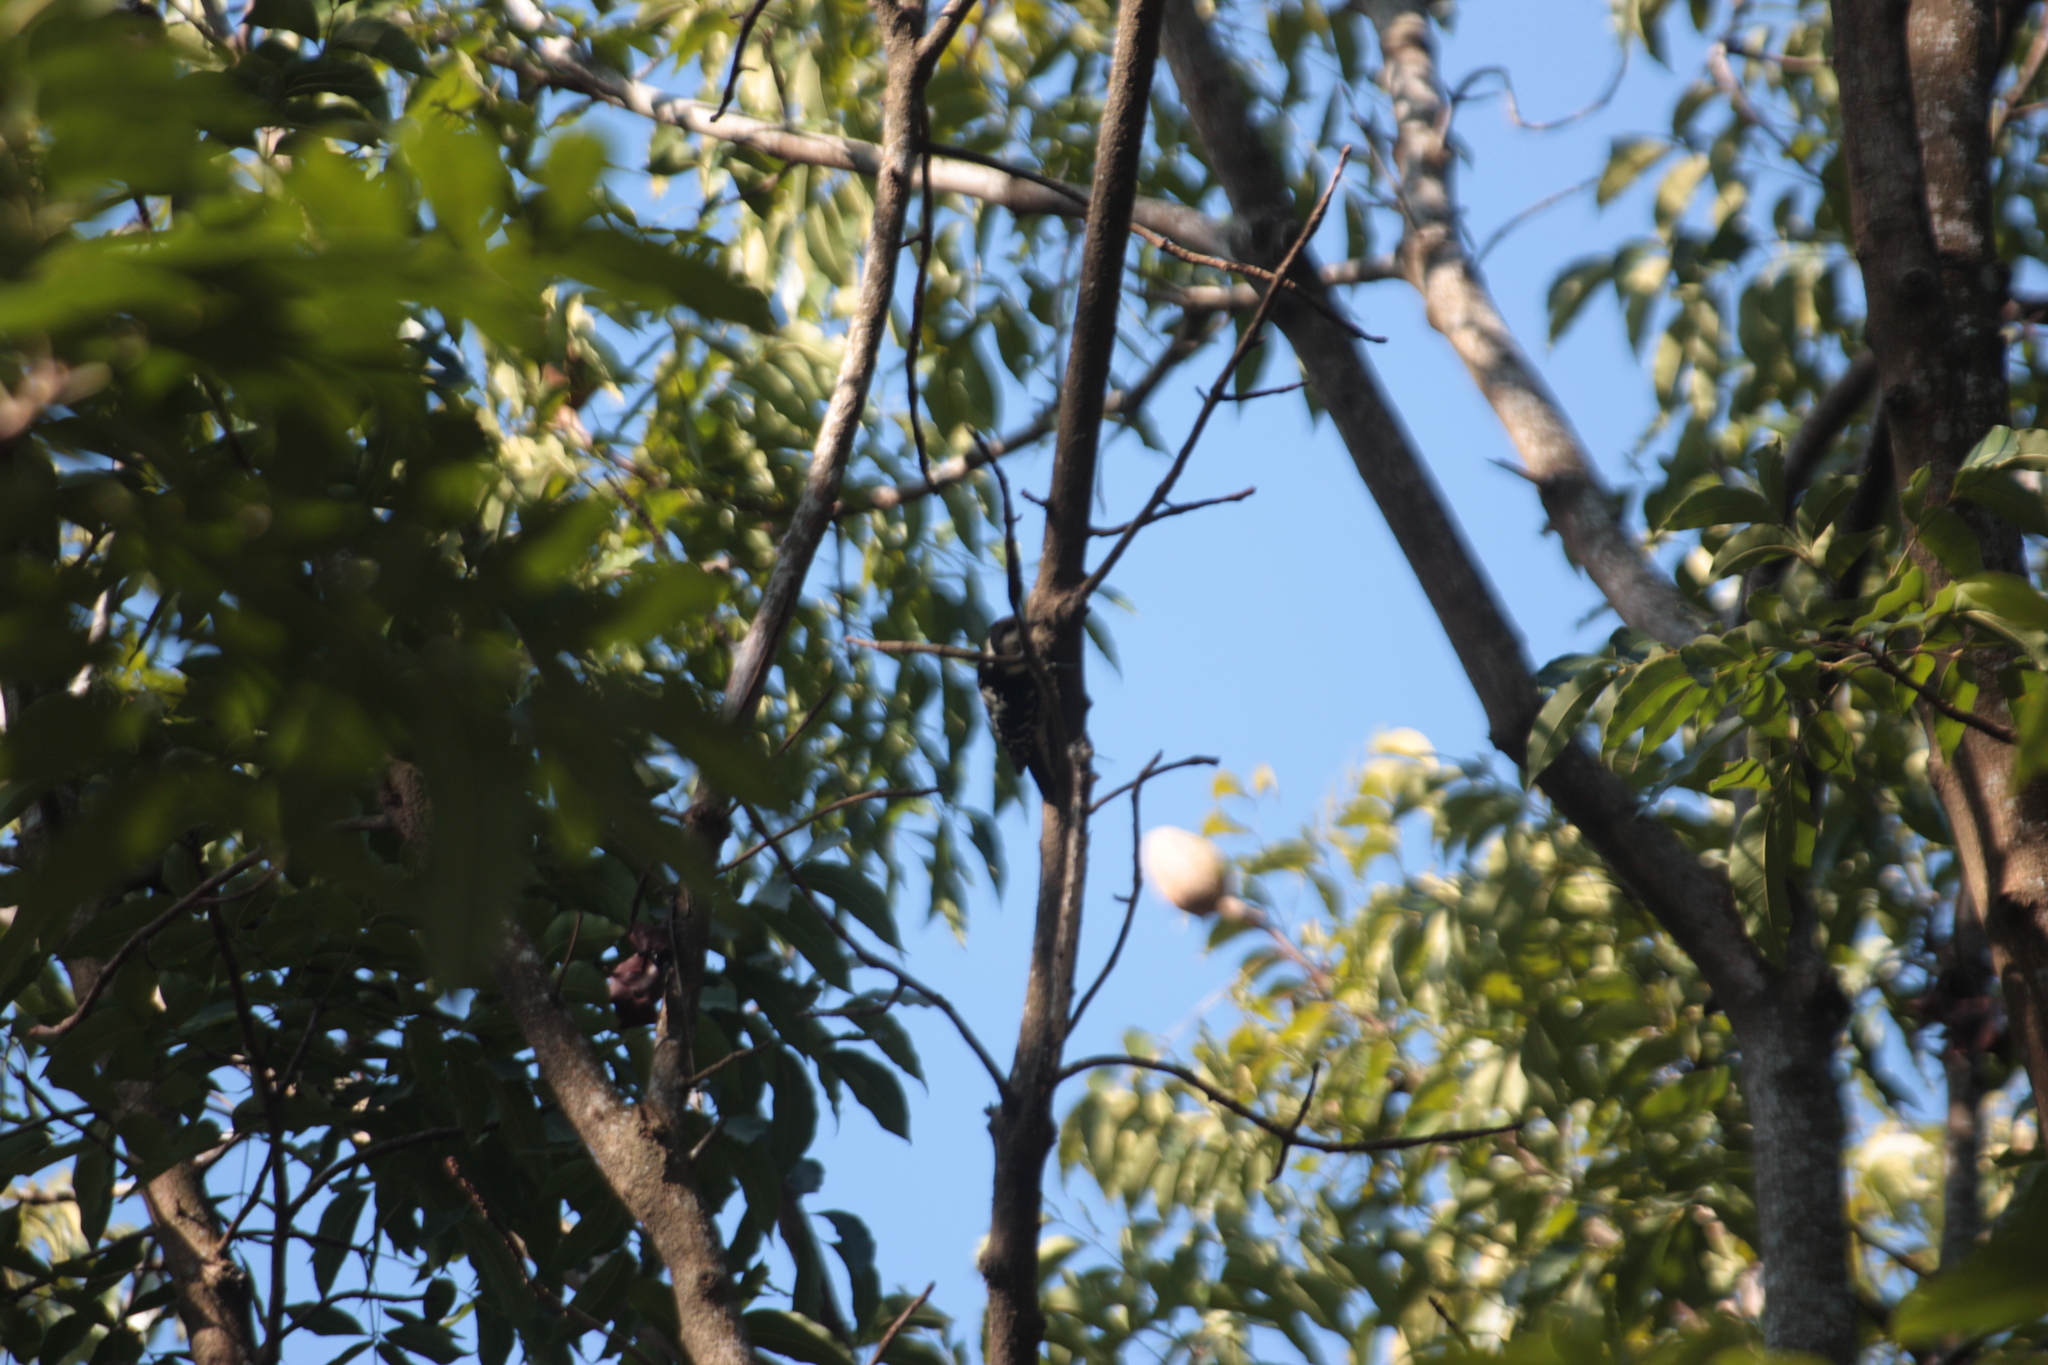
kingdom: Animalia
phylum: Chordata
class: Aves
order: Piciformes
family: Picidae
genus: Yungipicus
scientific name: Yungipicus canicapillus
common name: Grey-capped pygmy woodpecker
